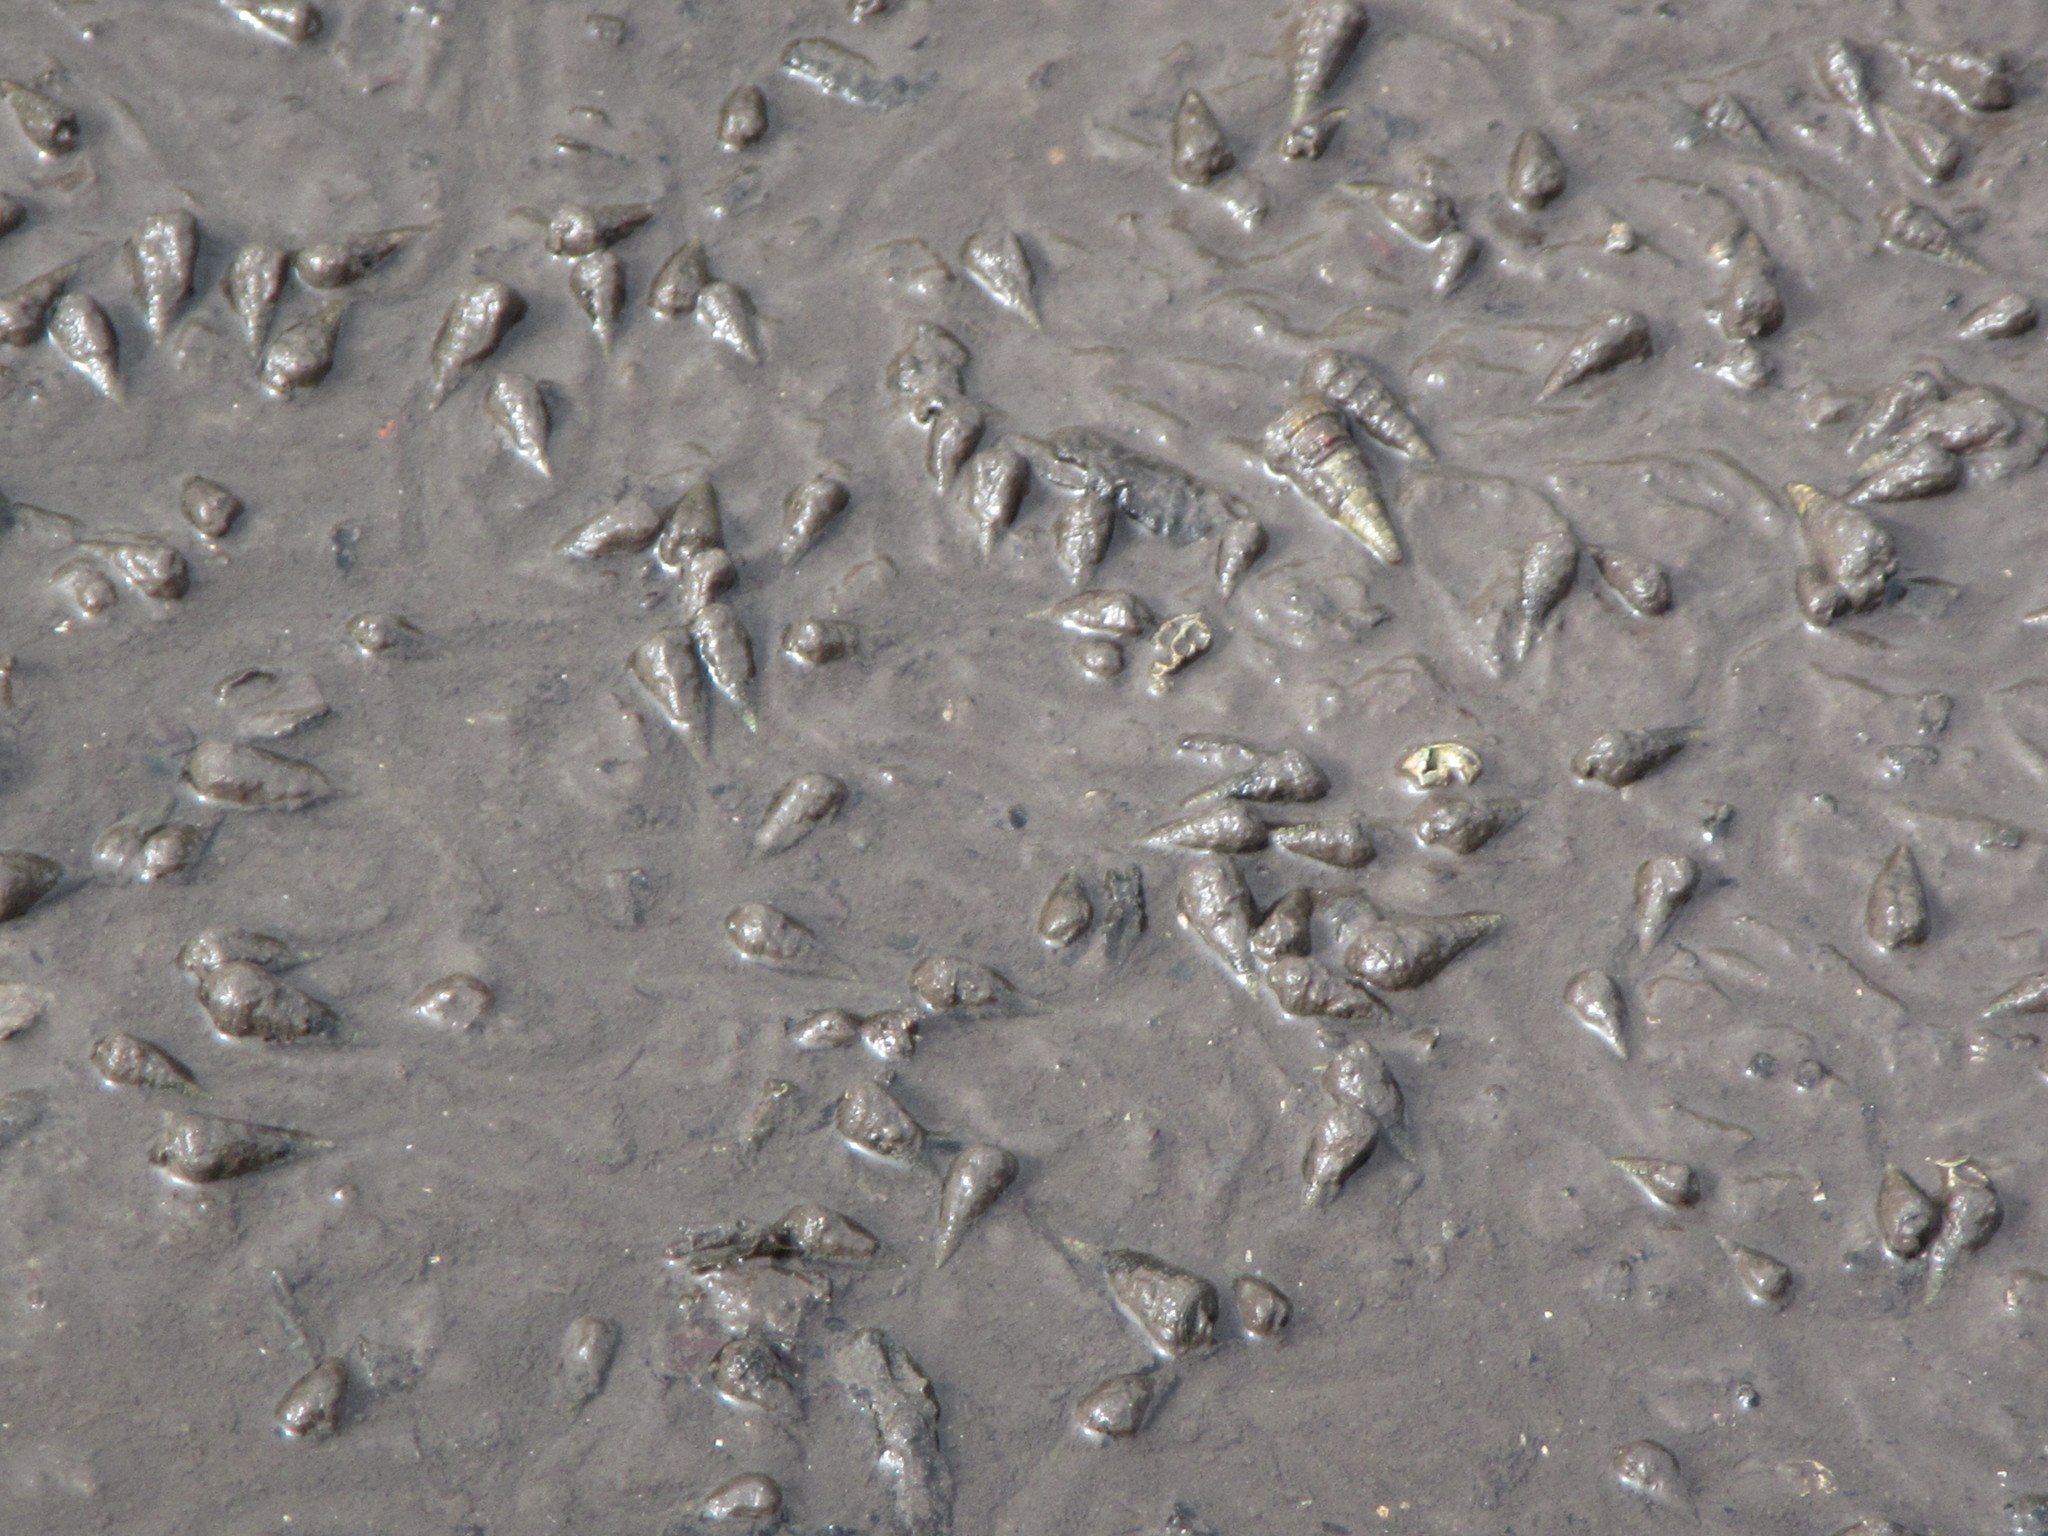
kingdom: Animalia
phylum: Mollusca
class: Gastropoda
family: Potamididae
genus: Tympanotonos
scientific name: Tympanotonos fuscatus
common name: Mud-flat periwinkle
